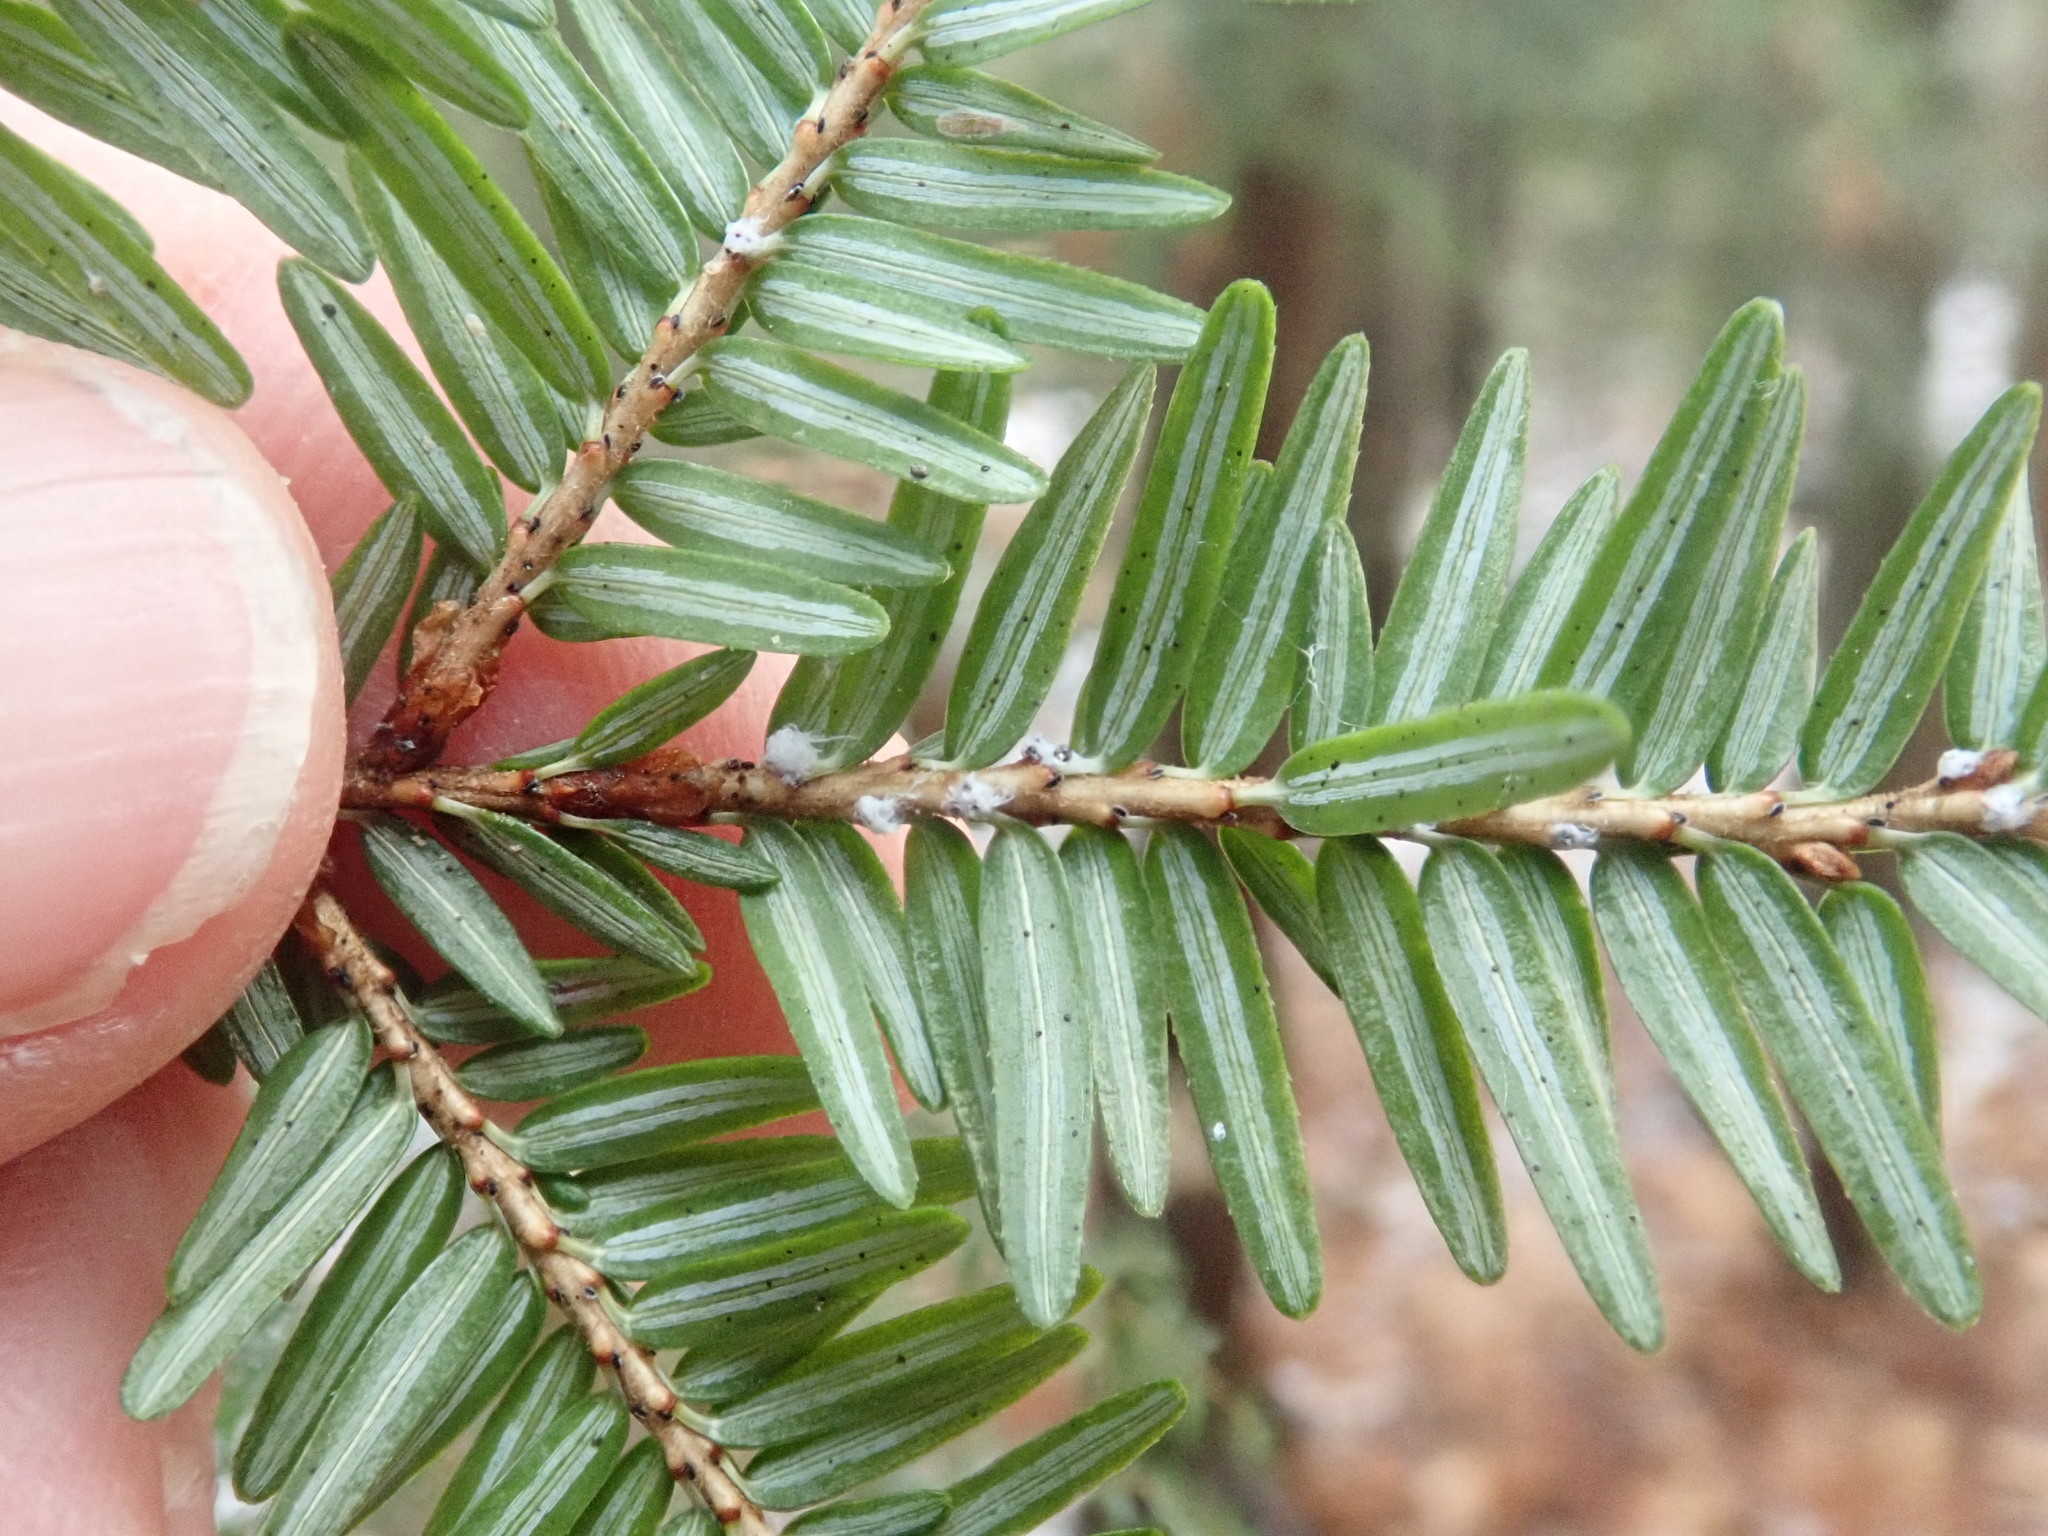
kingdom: Animalia
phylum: Arthropoda
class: Insecta
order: Hemiptera
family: Adelgidae
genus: Adelges
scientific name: Adelges tsugae
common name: Hemlock woolly adelgid
